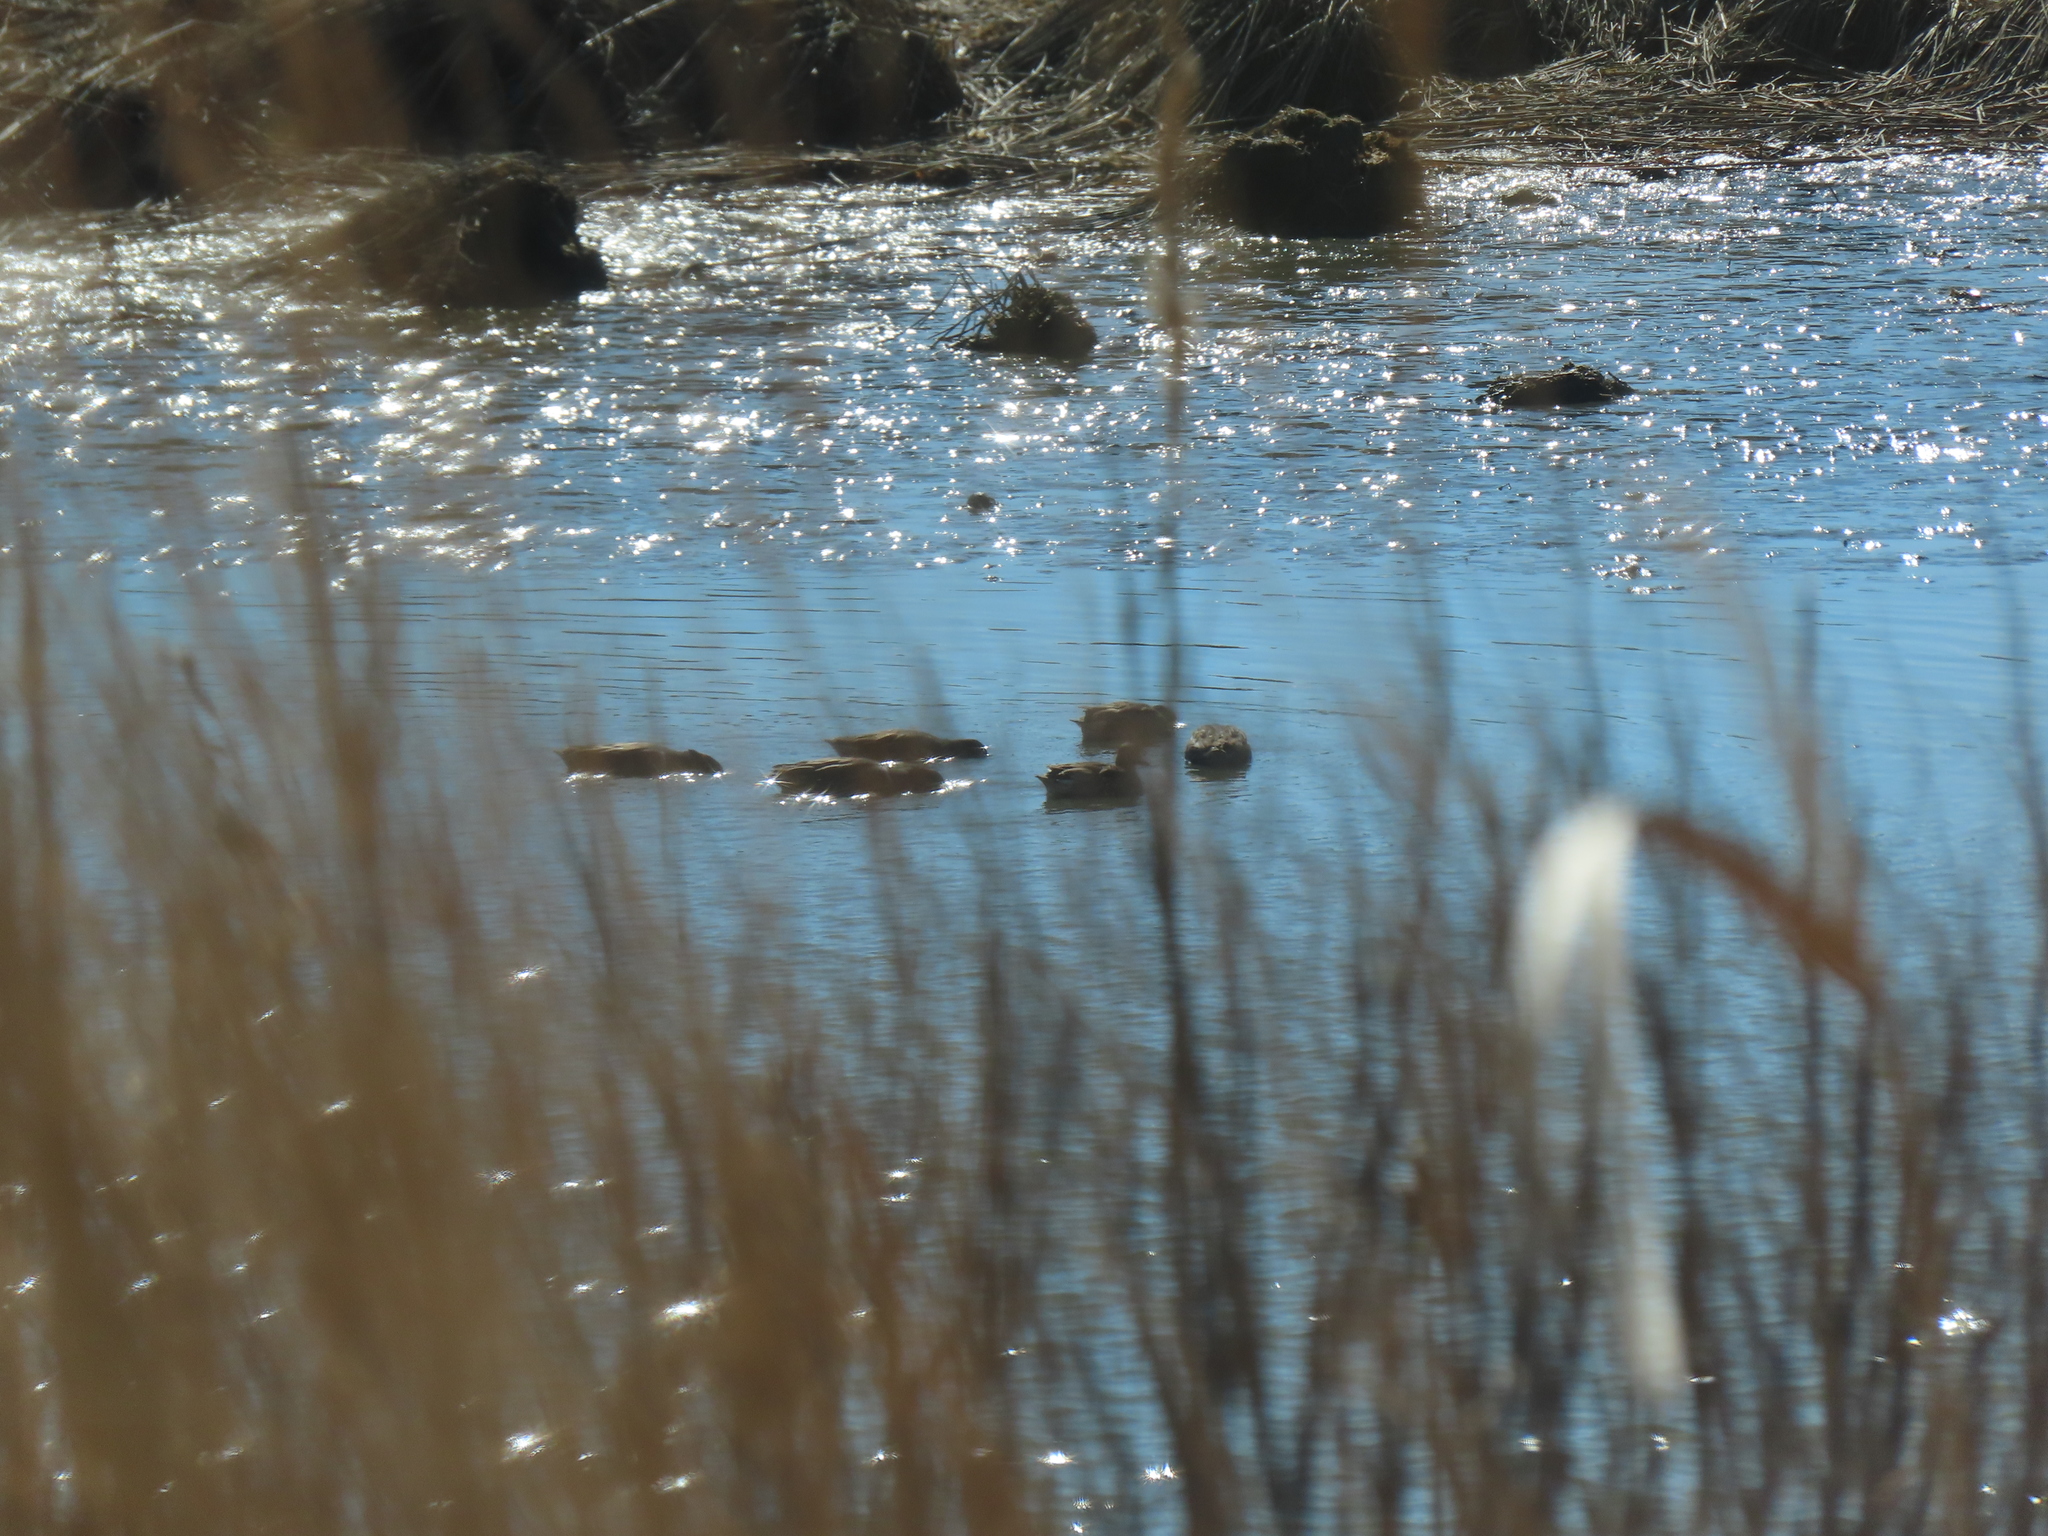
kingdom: Animalia
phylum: Chordata
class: Aves
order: Anseriformes
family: Anatidae
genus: Anas
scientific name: Anas crecca
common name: Eurasian teal
